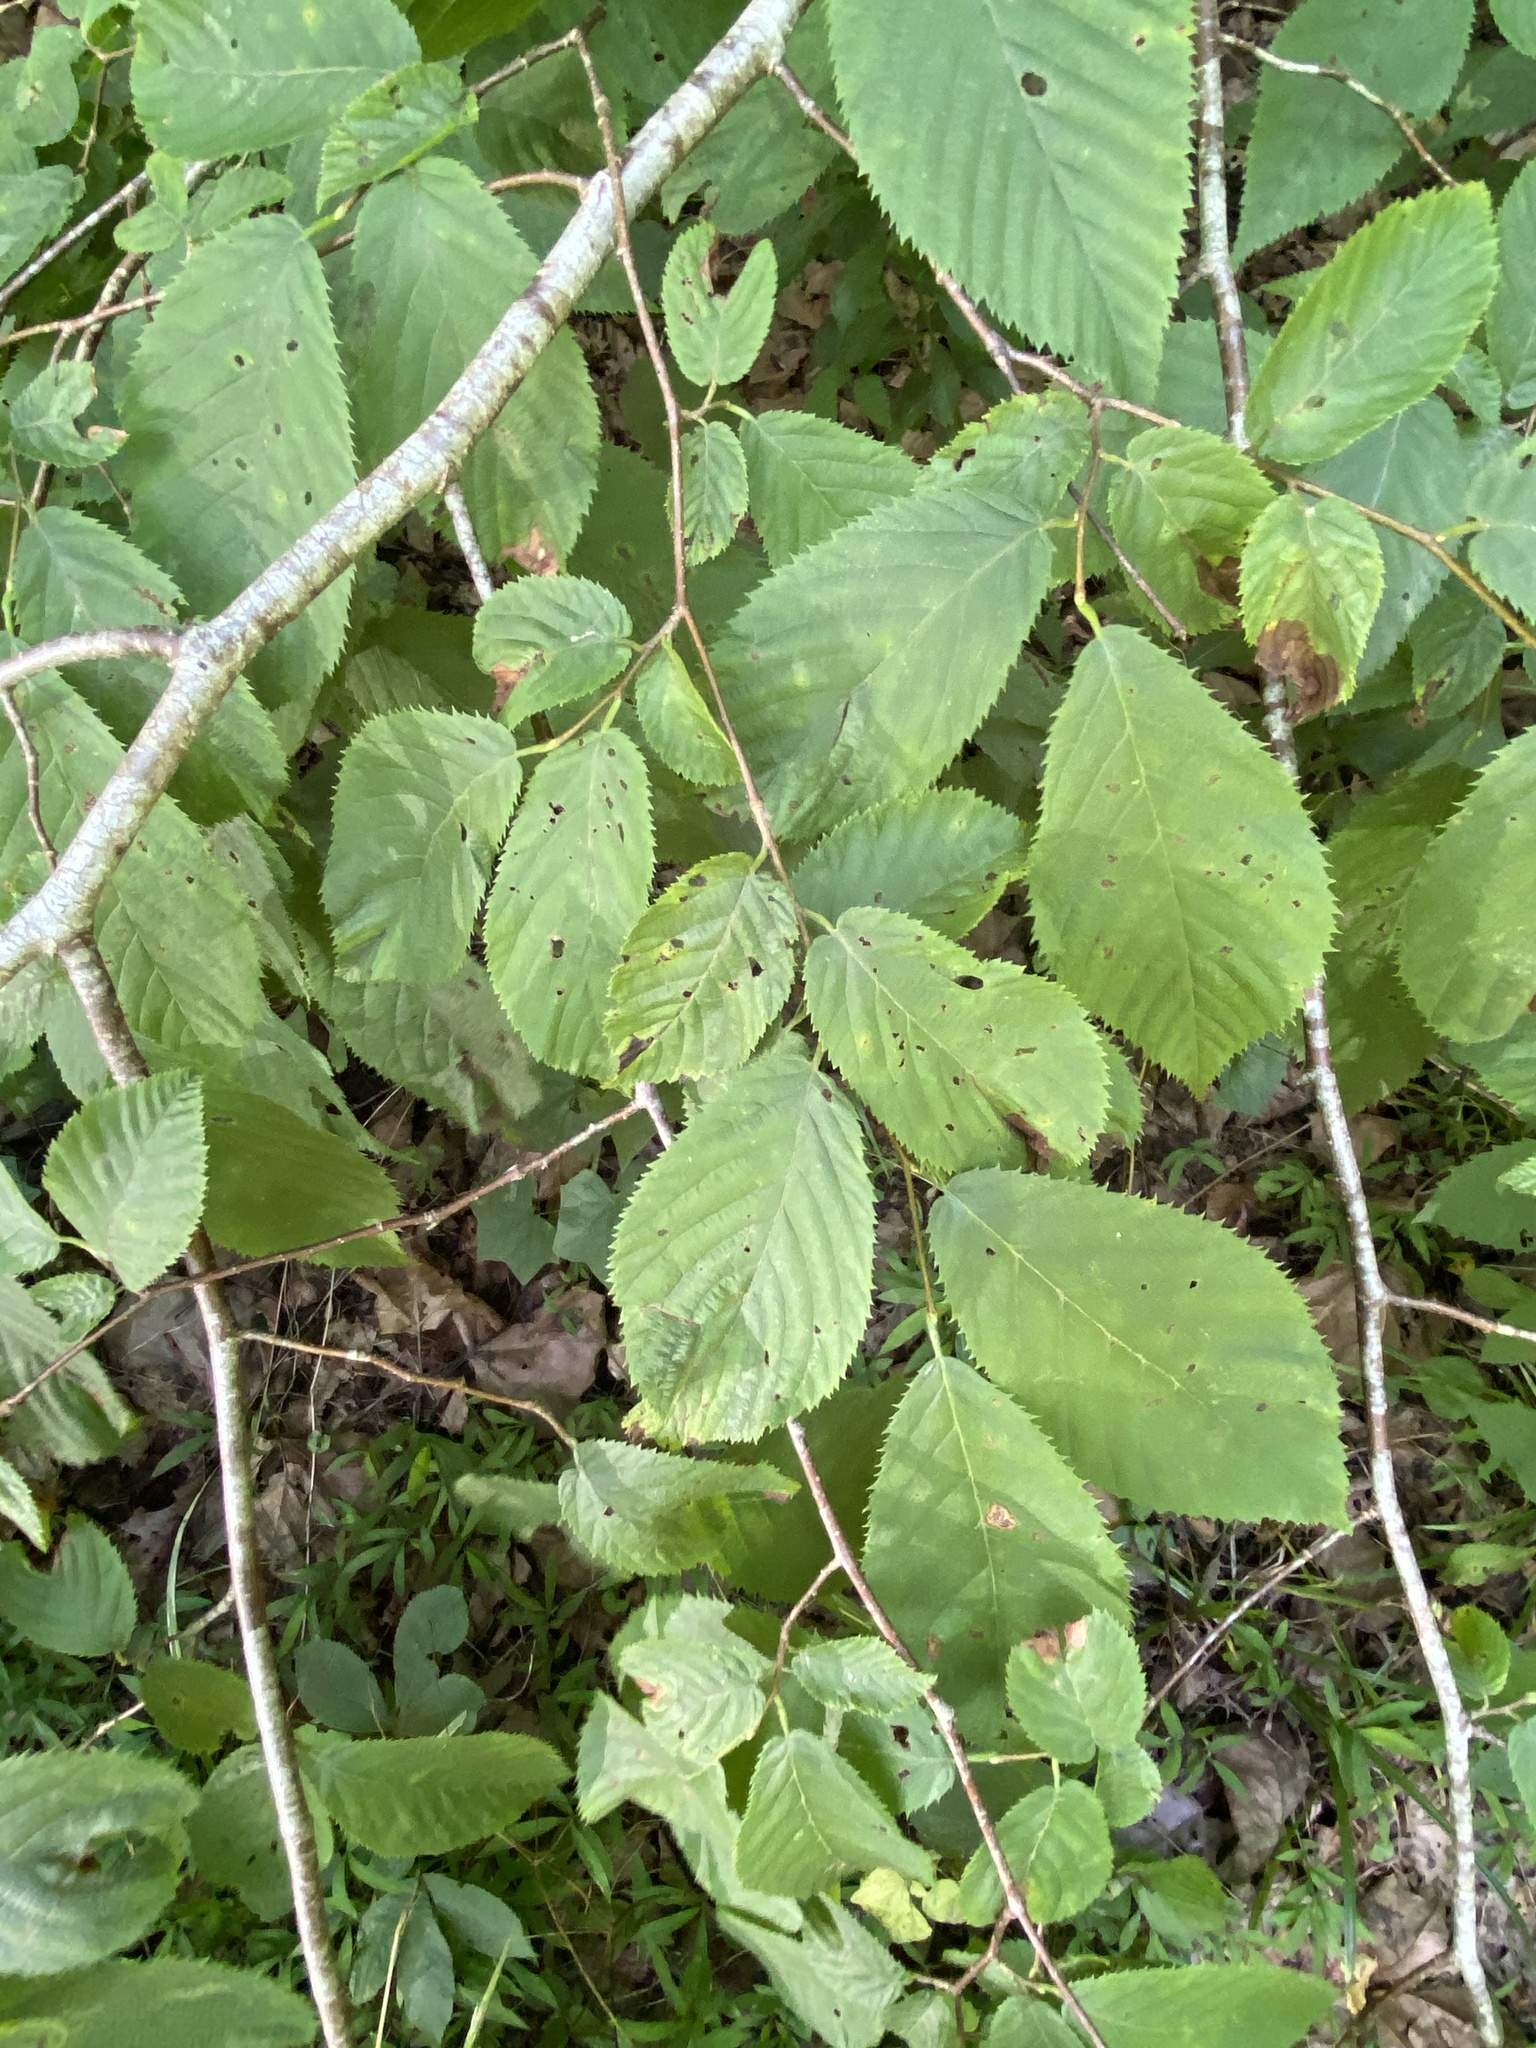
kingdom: Plantae
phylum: Tracheophyta
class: Magnoliopsida
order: Fagales
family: Betulaceae
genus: Ostrya
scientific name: Ostrya virginiana
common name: Ironwood
